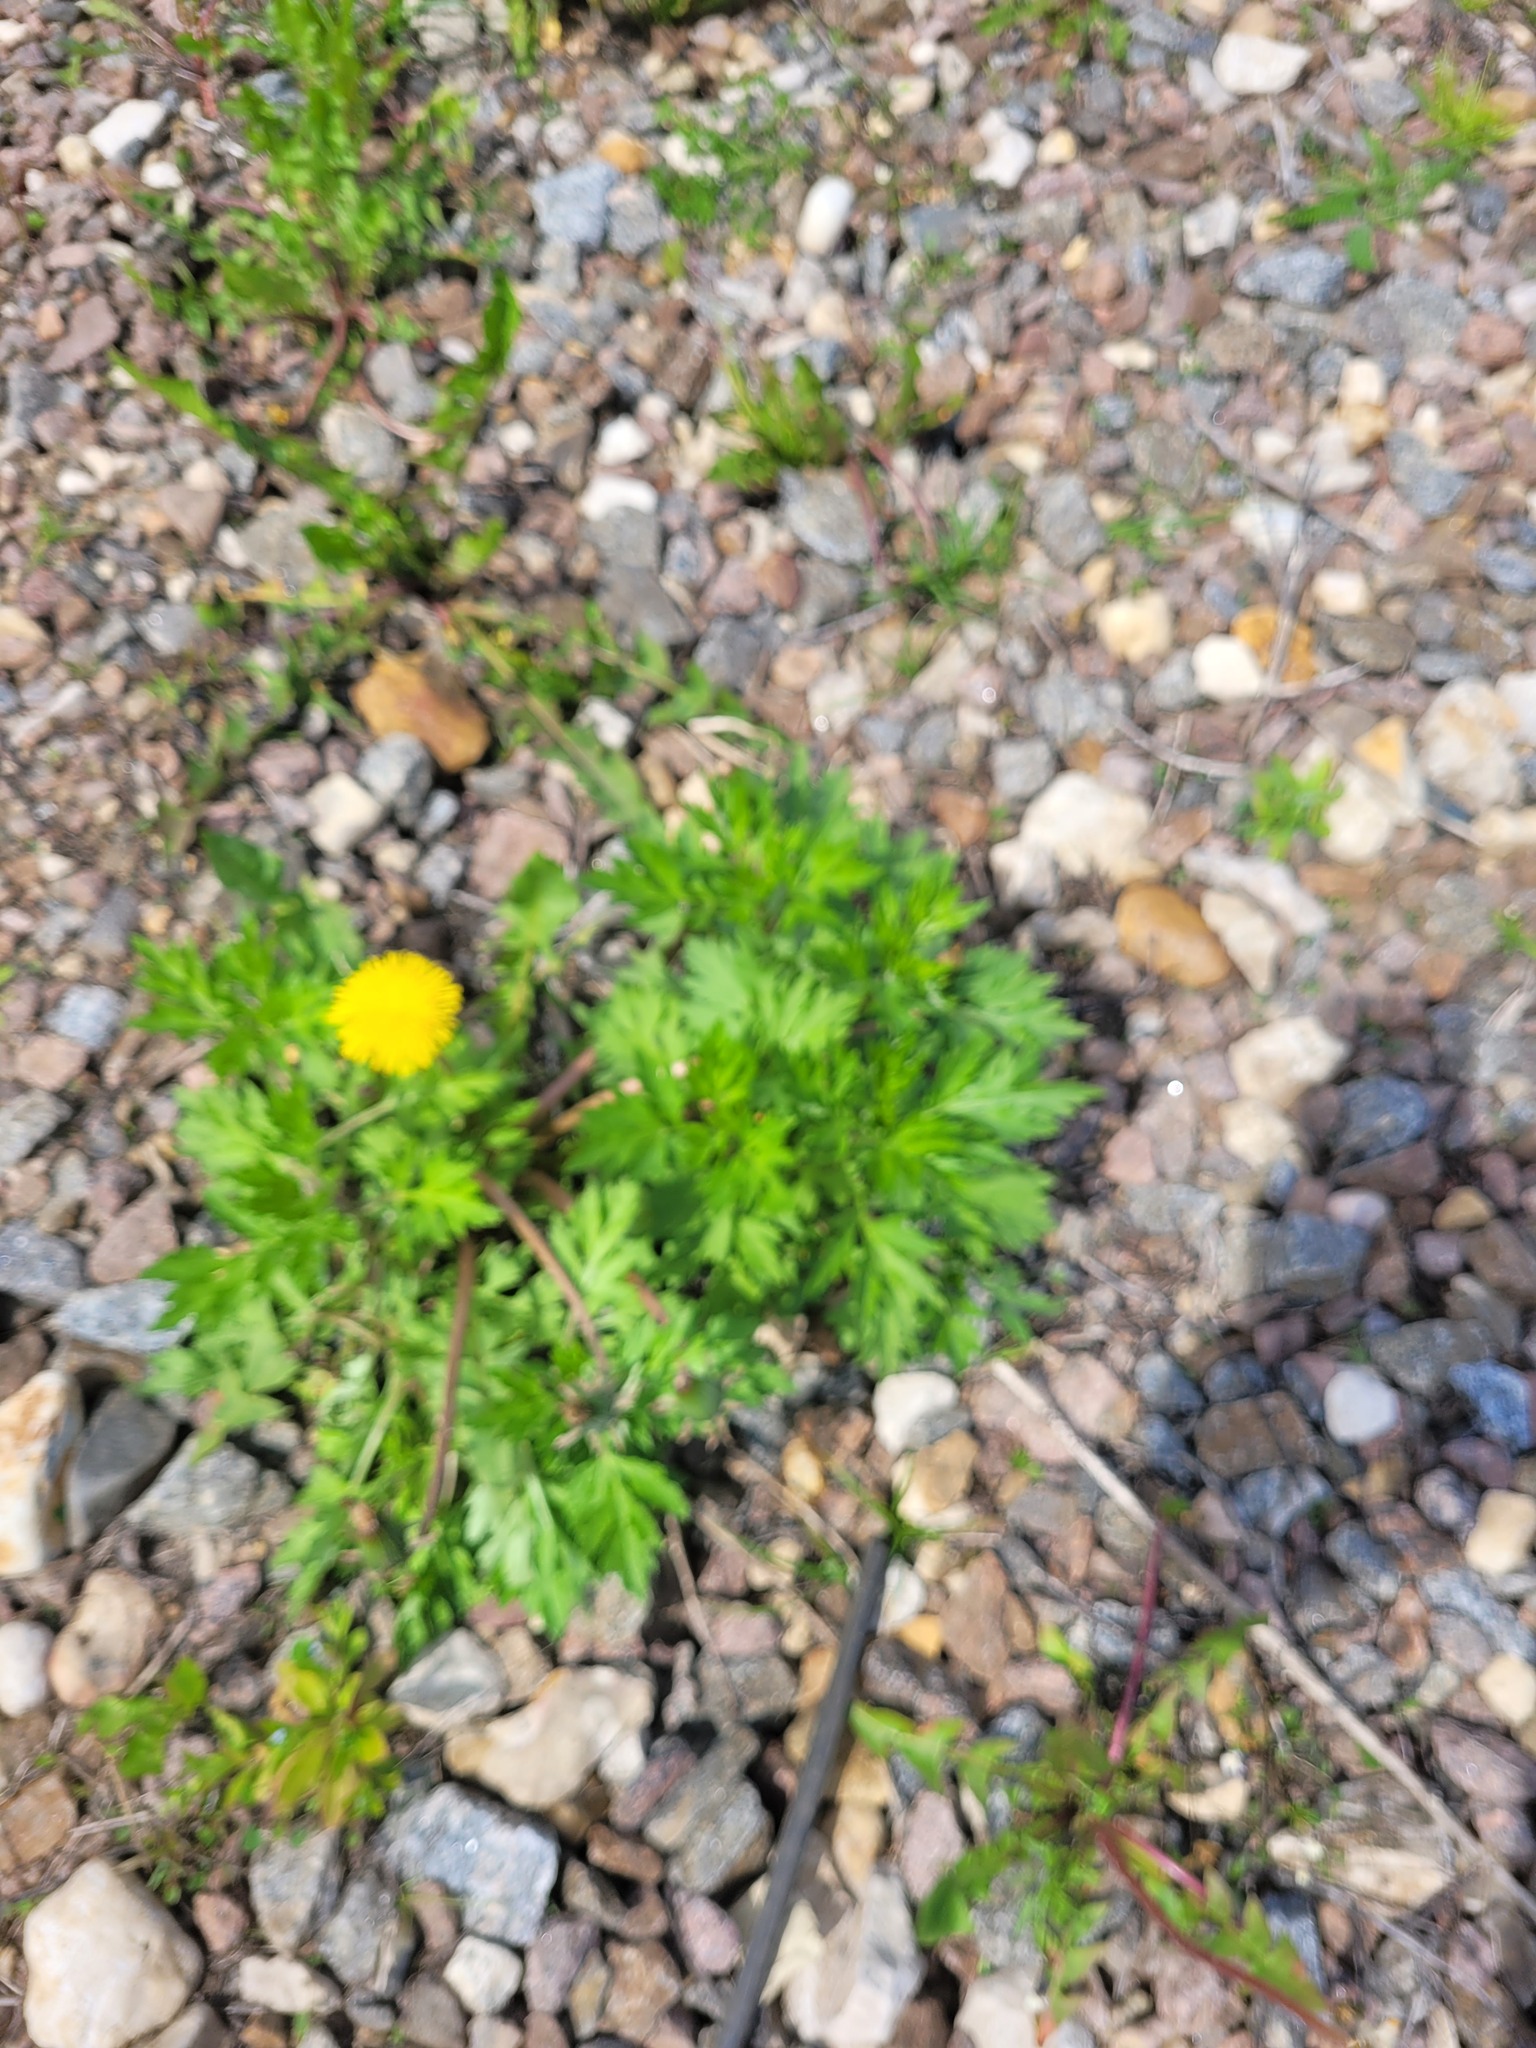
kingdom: Plantae
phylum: Tracheophyta
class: Magnoliopsida
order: Asterales
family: Asteraceae
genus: Artemisia
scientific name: Artemisia vulgaris
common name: Mugwort
